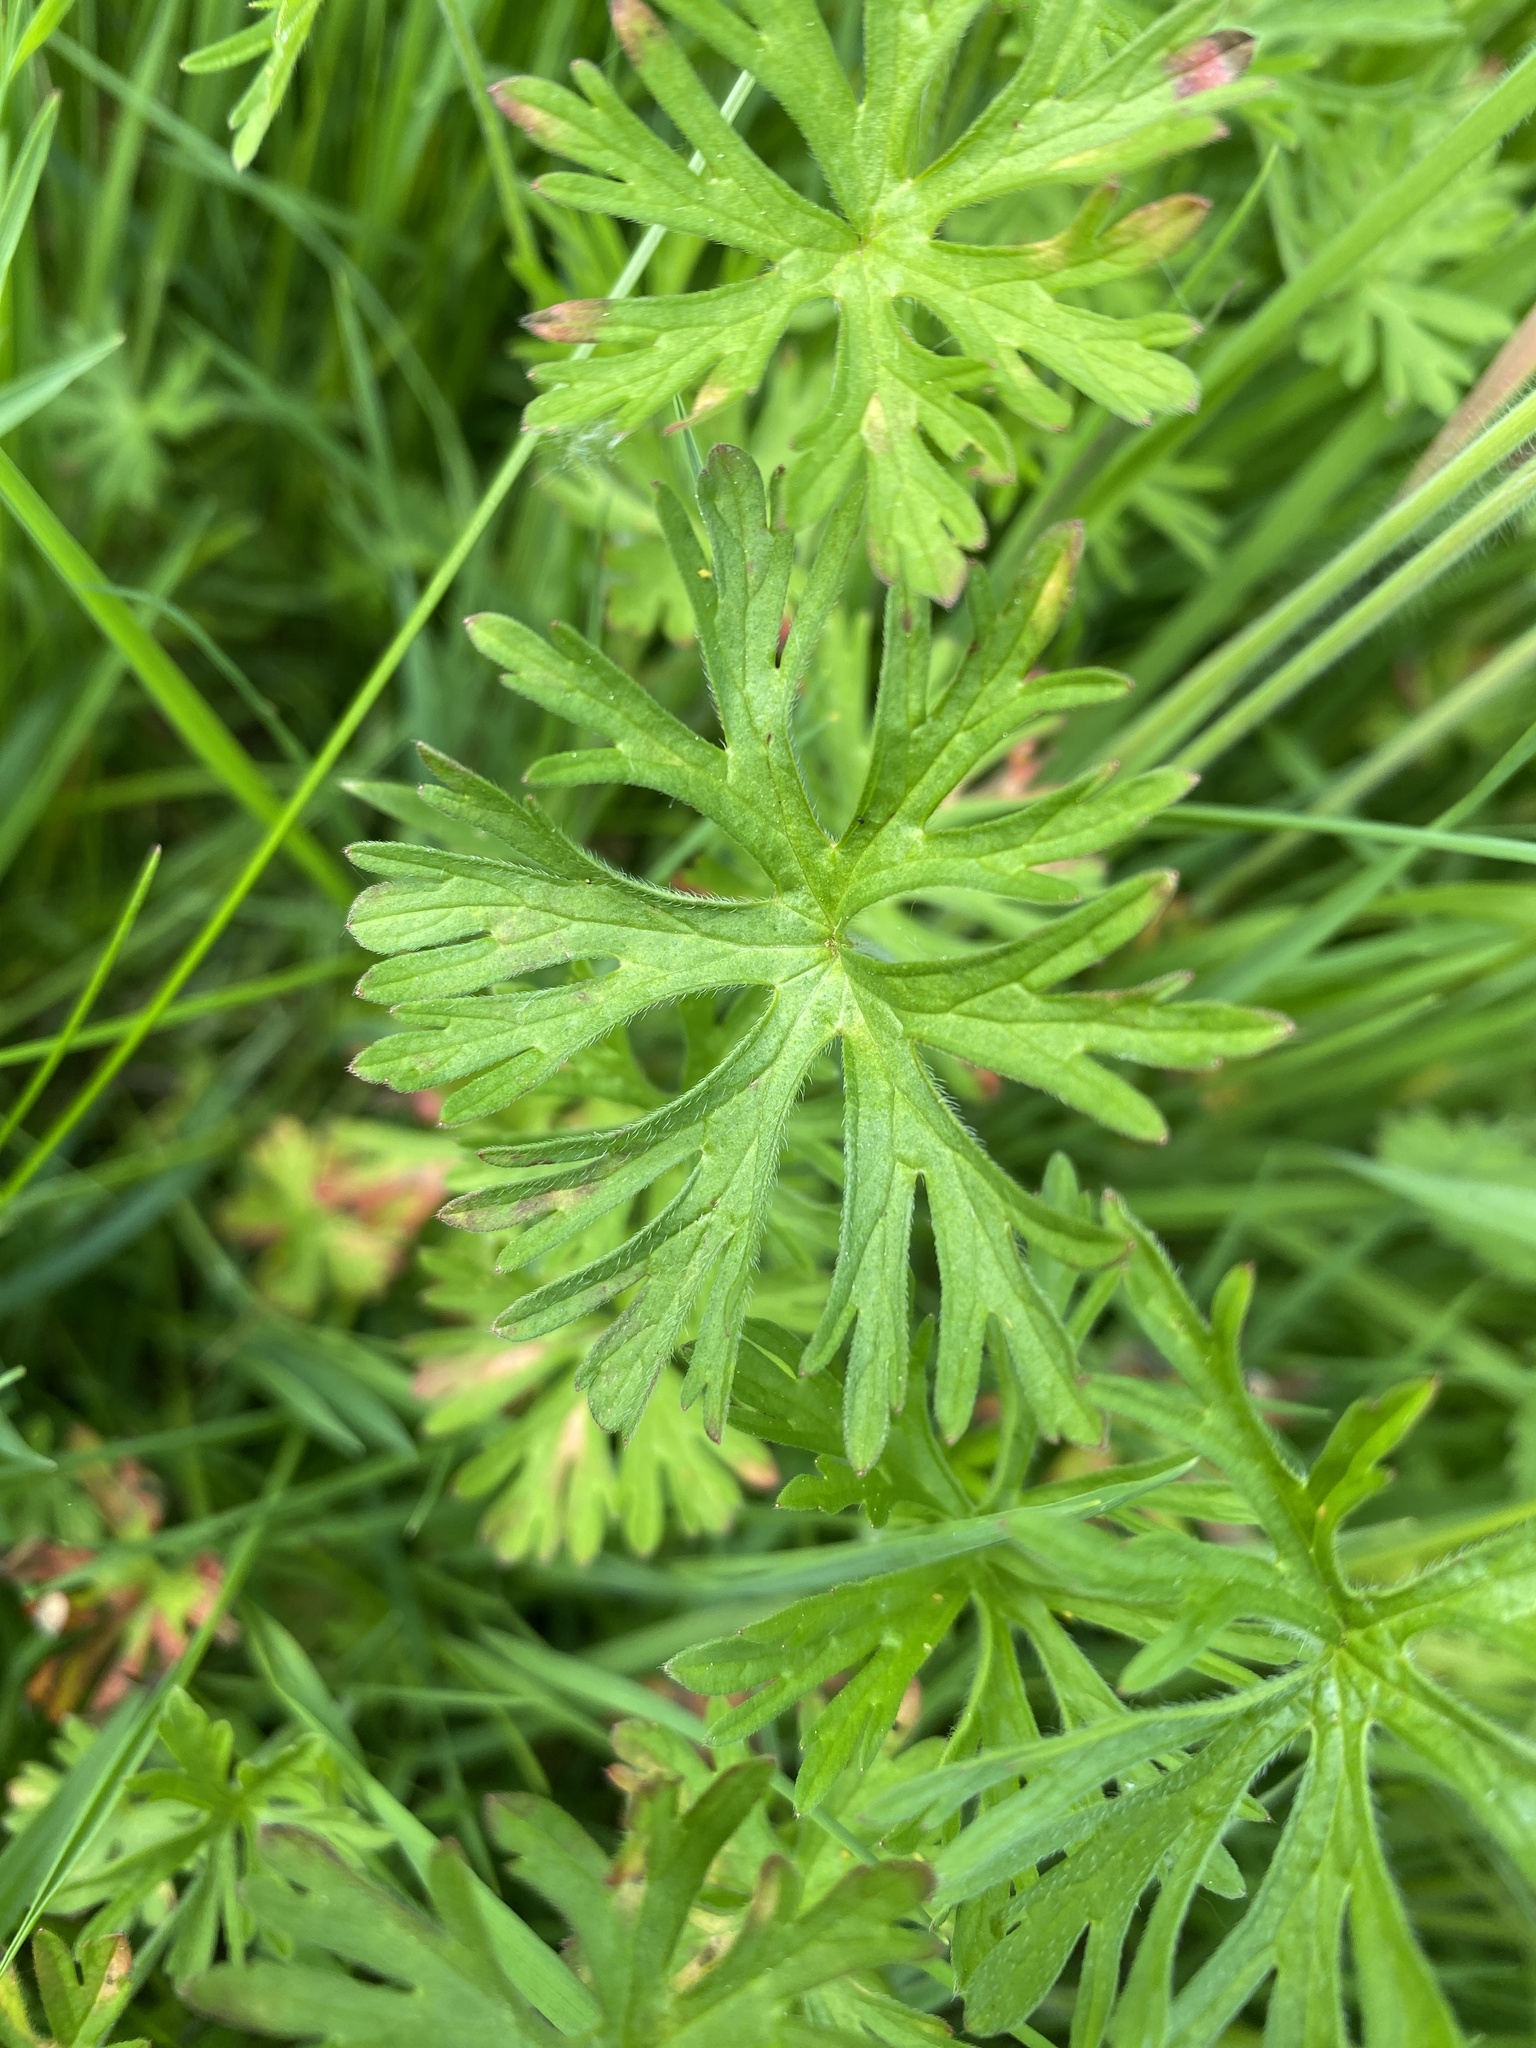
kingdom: Plantae
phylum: Tracheophyta
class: Magnoliopsida
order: Geraniales
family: Geraniaceae
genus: Geranium
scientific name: Geranium dissectum
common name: Cut-leaved crane's-bill
